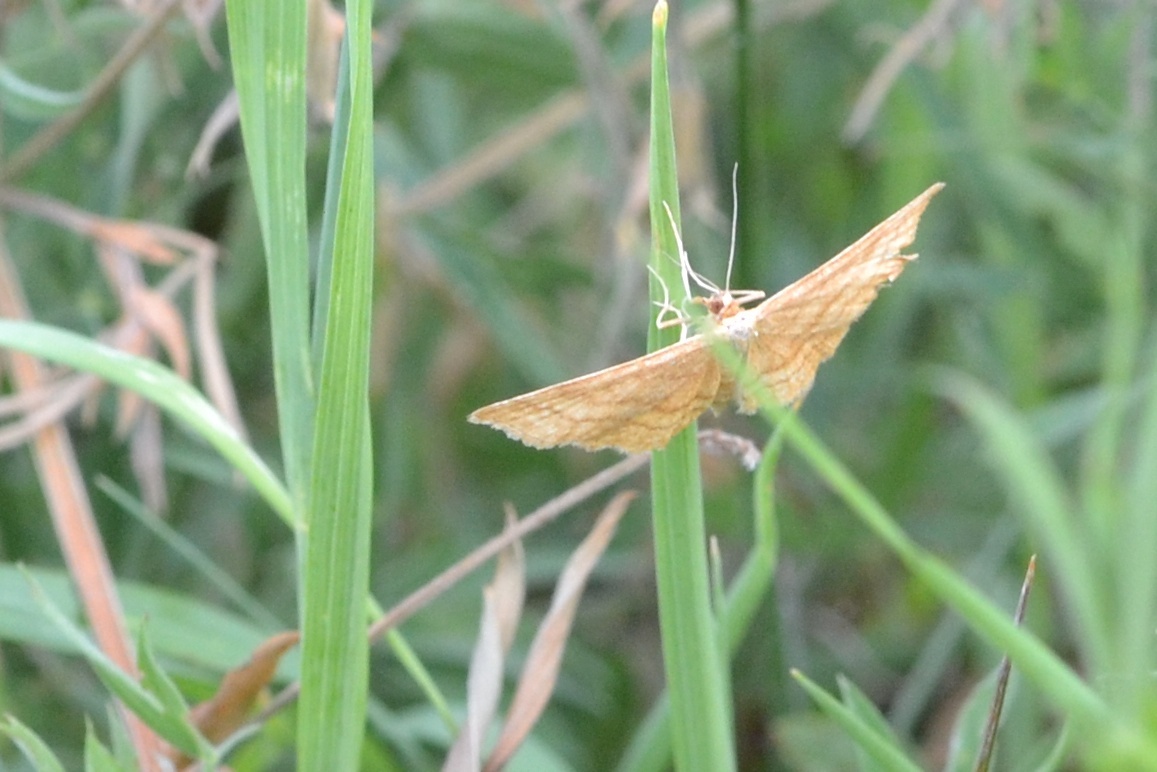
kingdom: Animalia
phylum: Arthropoda
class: Insecta
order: Lepidoptera
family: Geometridae
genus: Idaea
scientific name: Idaea ochrata
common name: Bright wave
